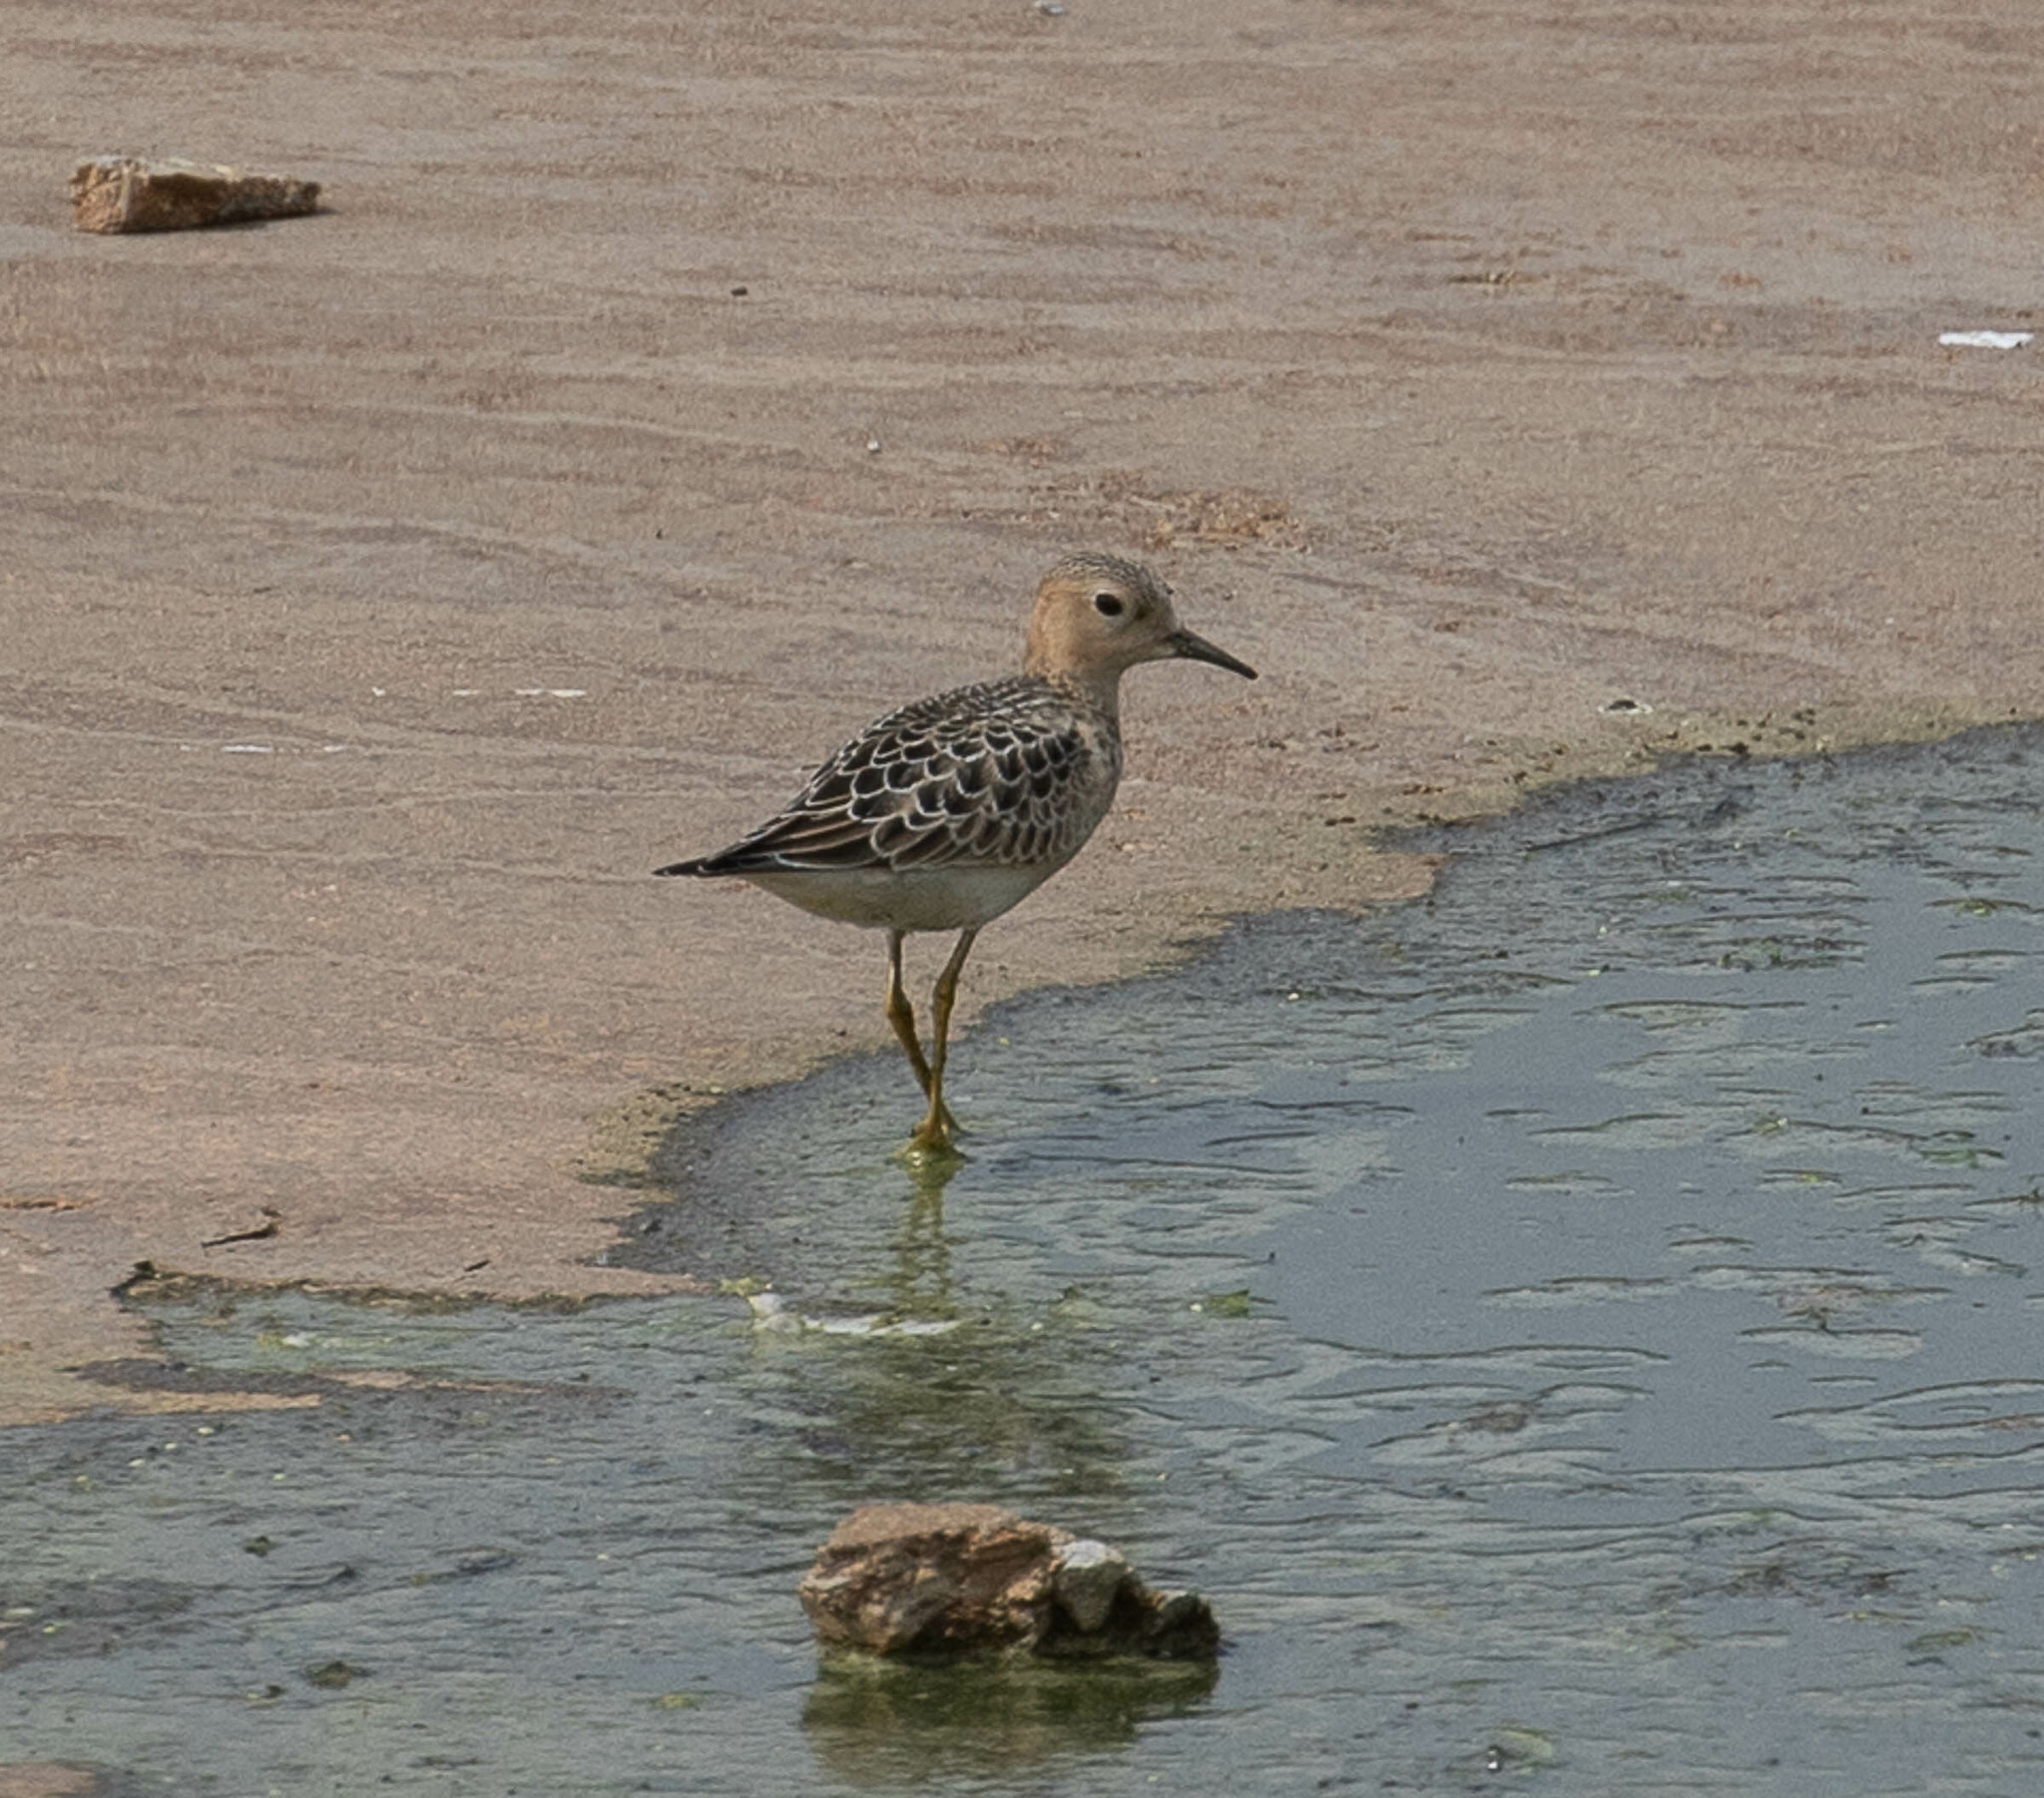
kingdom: Animalia
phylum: Chordata
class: Aves
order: Charadriiformes
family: Scolopacidae
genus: Calidris
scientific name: Calidris subruficollis
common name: Buff-breasted sandpiper
